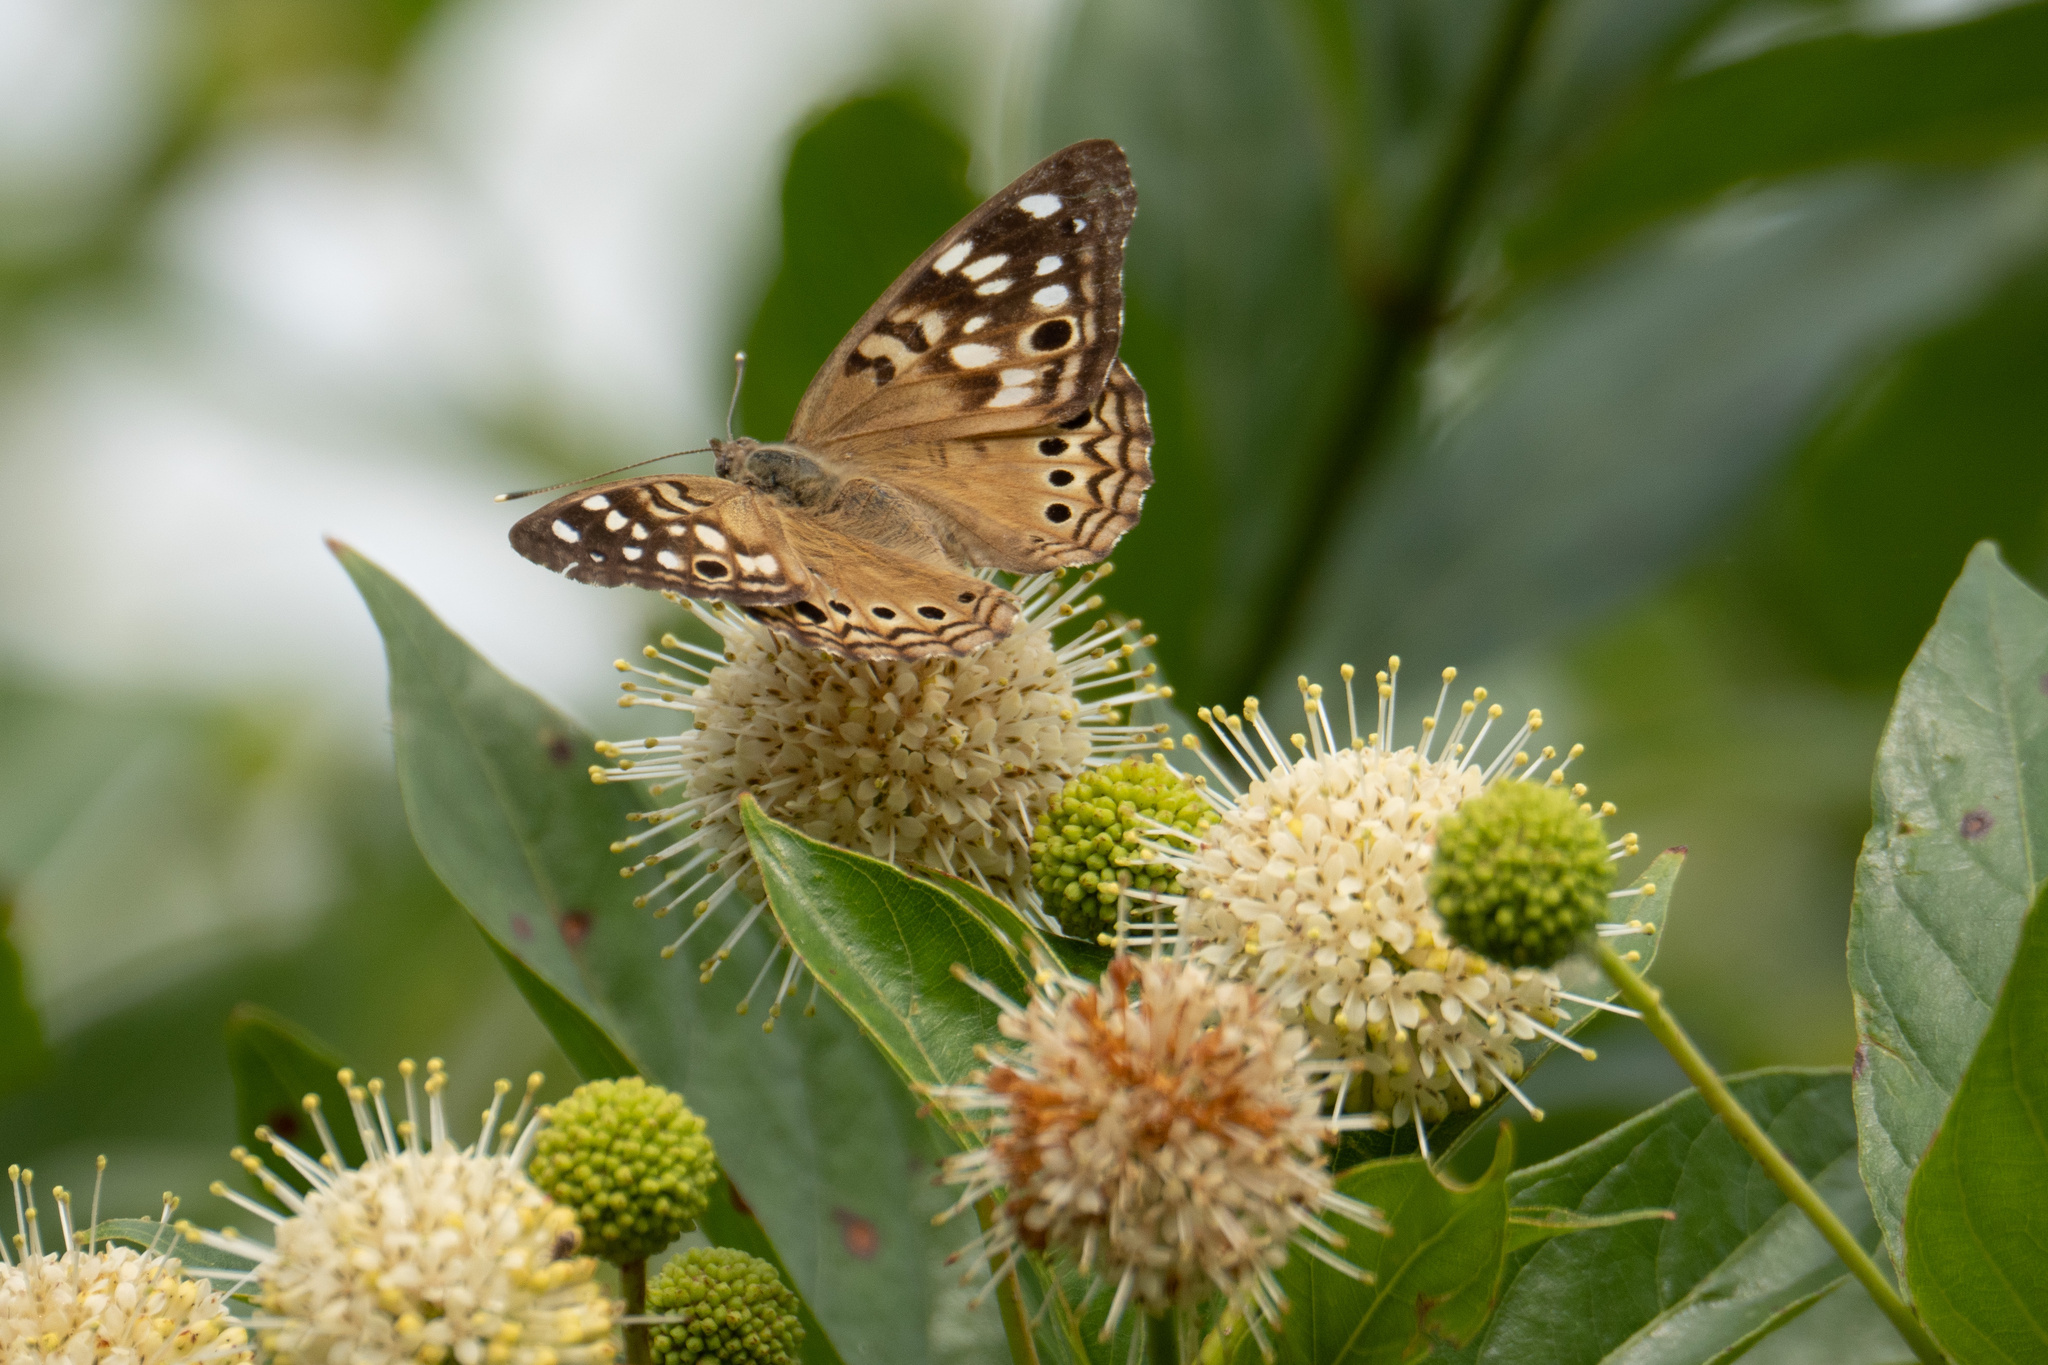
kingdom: Animalia
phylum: Arthropoda
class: Insecta
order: Lepidoptera
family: Nymphalidae
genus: Asterocampa
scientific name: Asterocampa celtis
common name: Hackberry emperor
